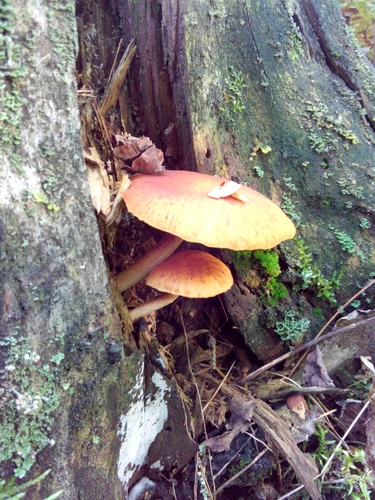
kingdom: Fungi
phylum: Basidiomycota
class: Agaricomycetes
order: Agaricales
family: Hymenogastraceae
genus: Gymnopilus
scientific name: Gymnopilus penetrans
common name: Common rustgill
